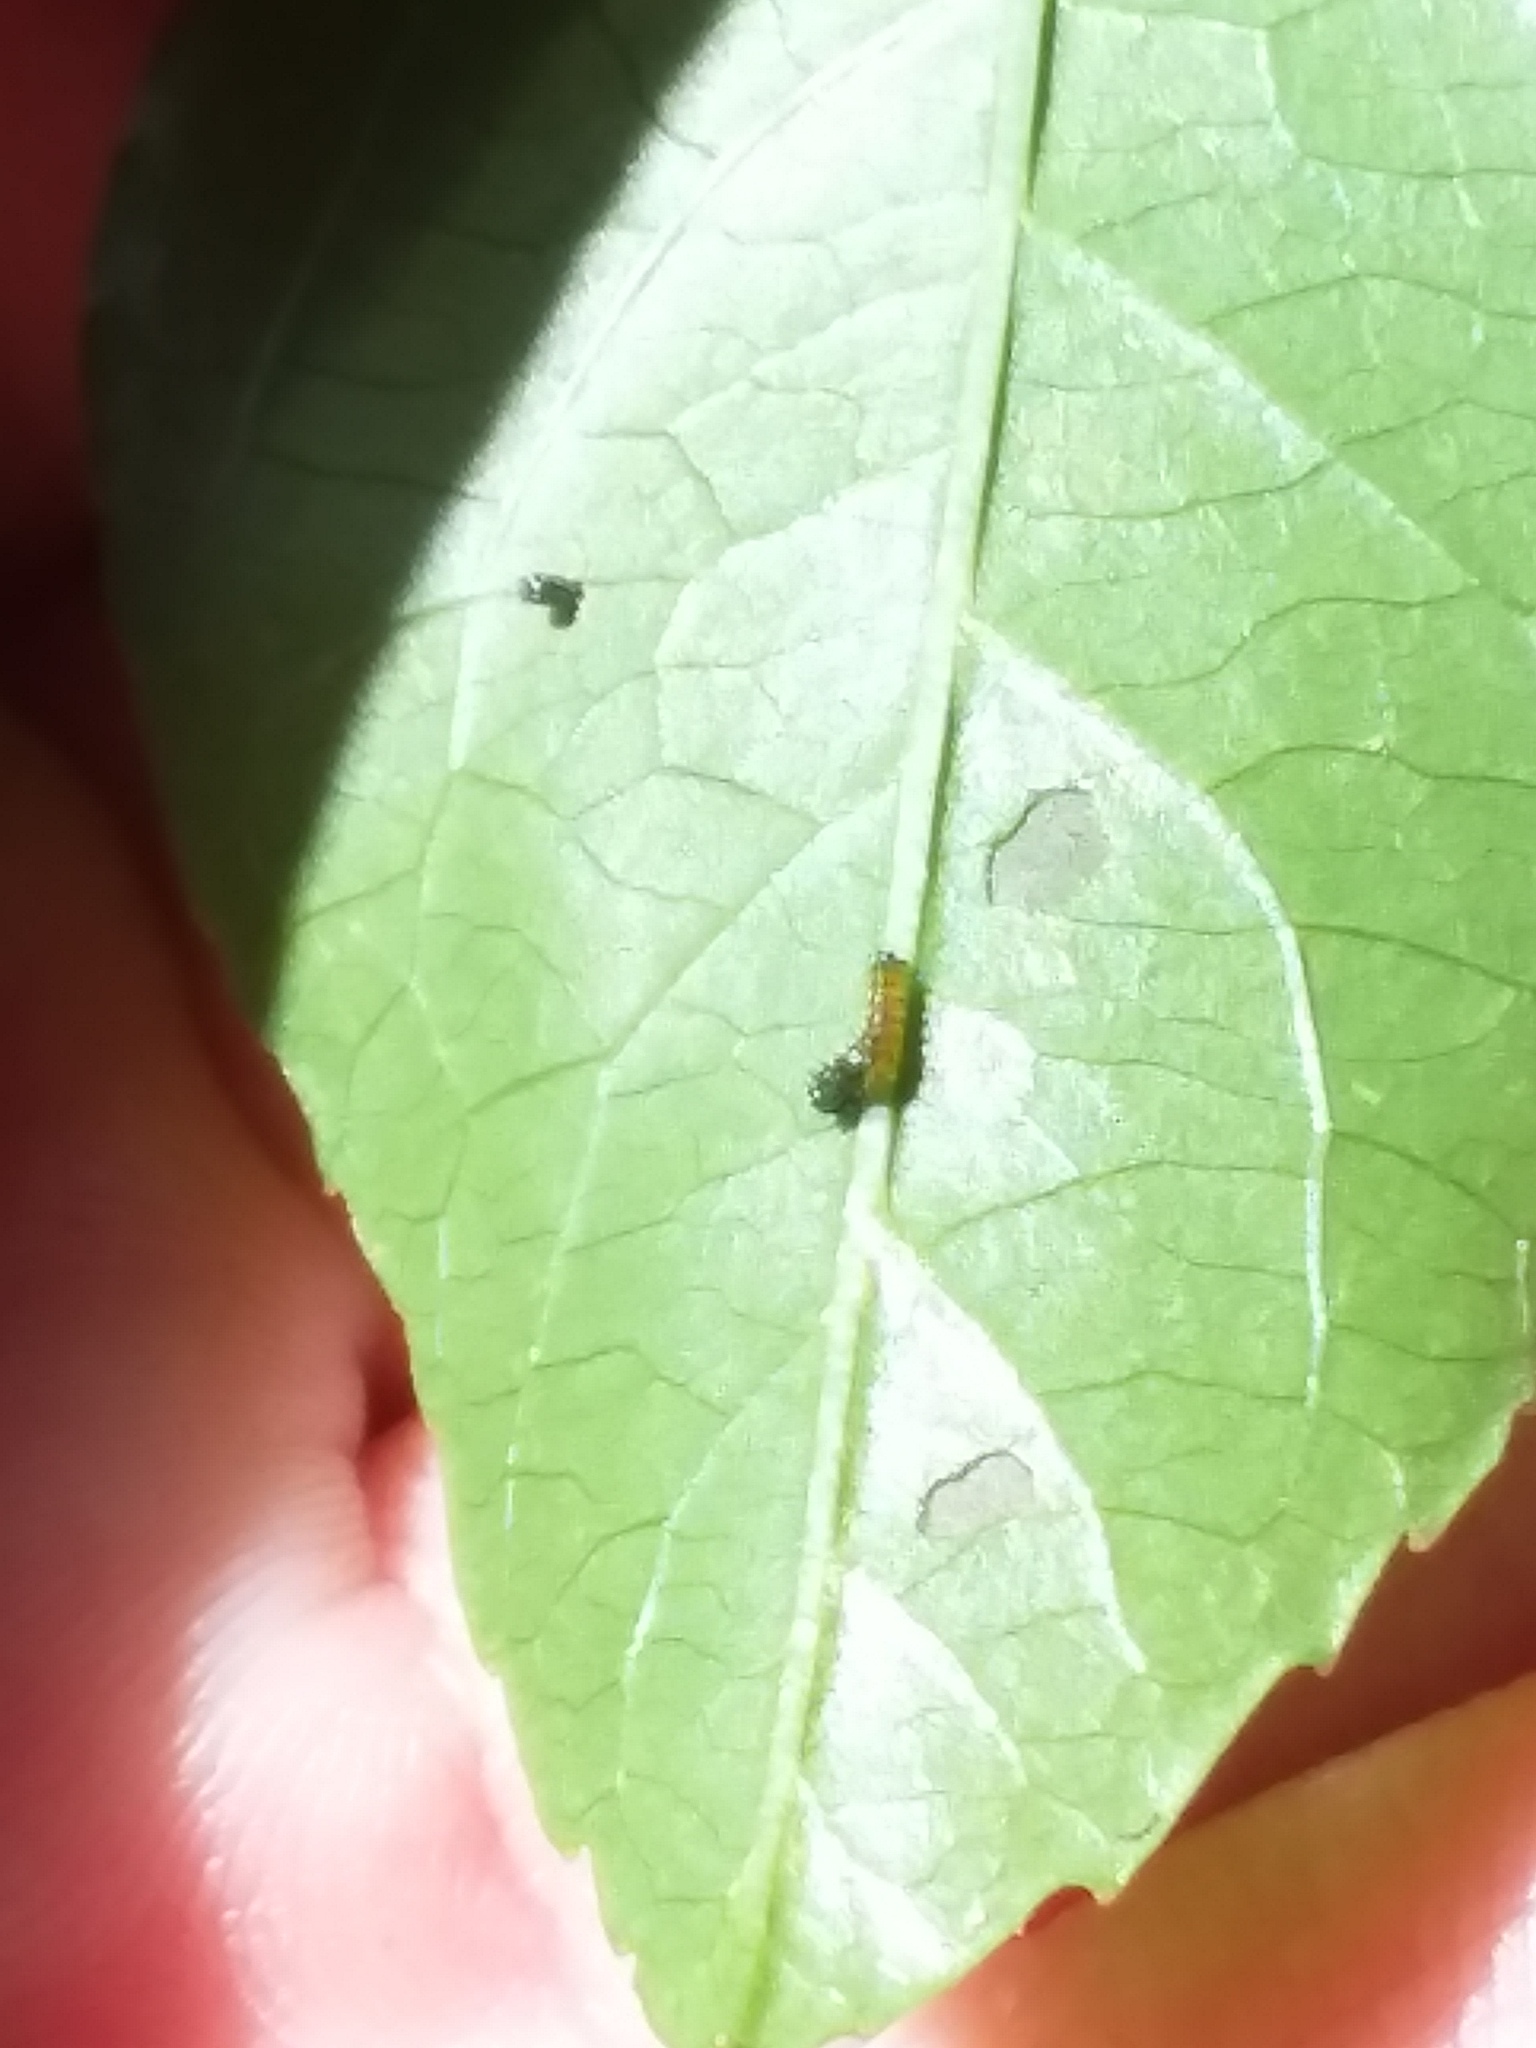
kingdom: Animalia
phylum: Arthropoda
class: Insecta
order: Lepidoptera
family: Nymphalidae
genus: Dione
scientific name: Dione vanillae
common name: Gulf fritillary
